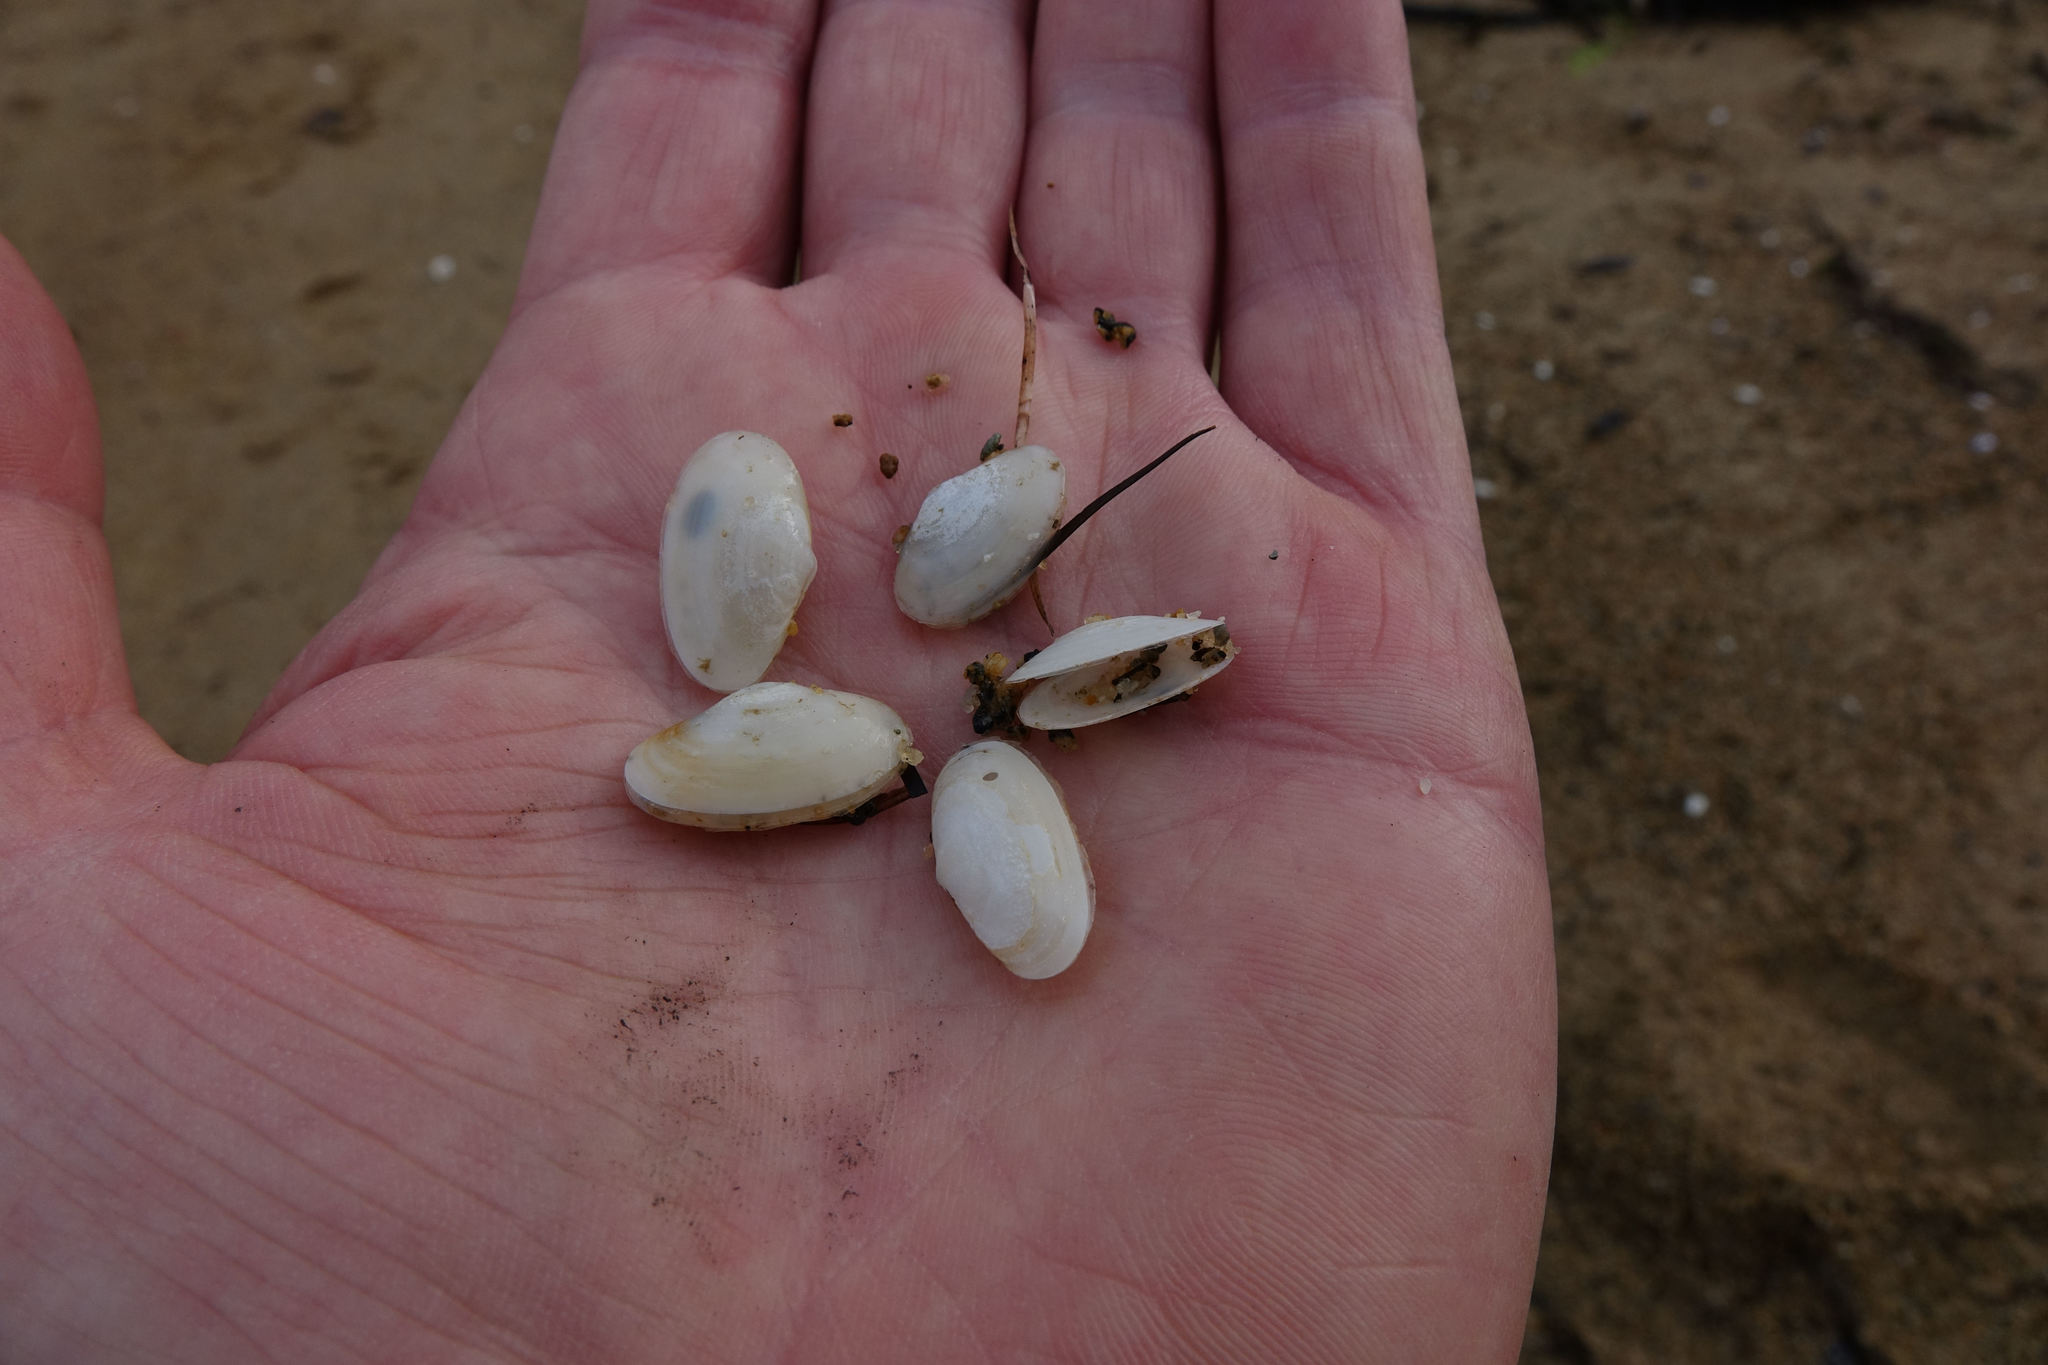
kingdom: Animalia
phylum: Mollusca
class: Bivalvia
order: Venerida
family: Mesodesmatidae
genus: Paphies
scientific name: Paphies australis
